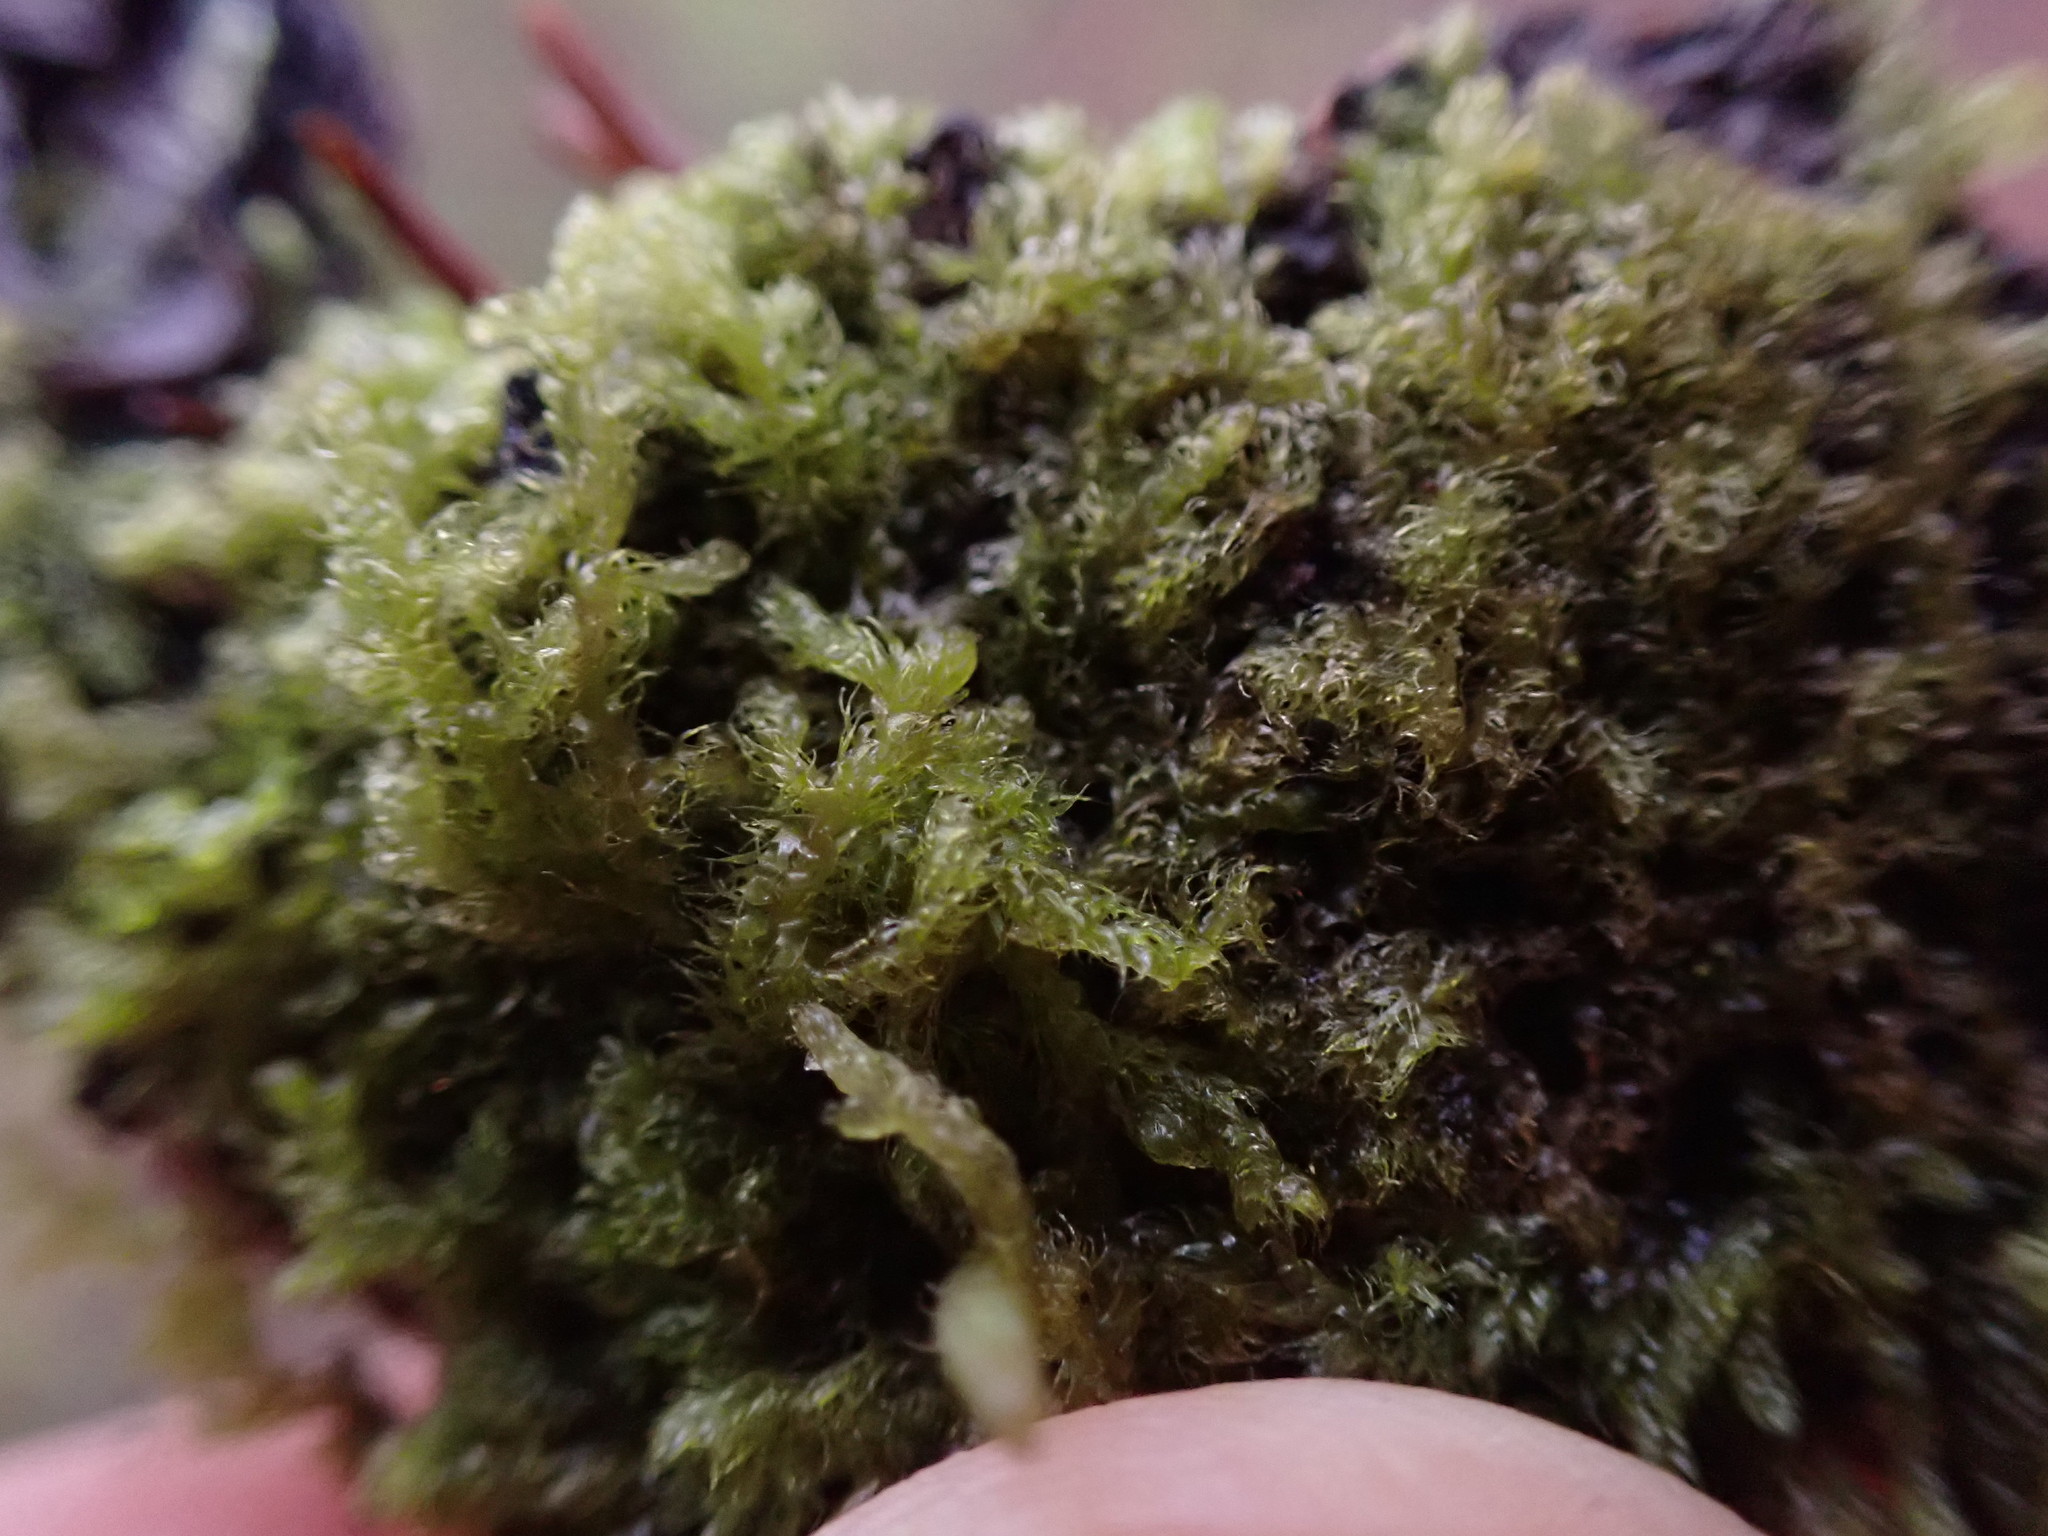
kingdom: Plantae
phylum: Marchantiophyta
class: Jungermanniopsida
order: Ptilidiales
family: Ptilidiaceae
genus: Ptilidium
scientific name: Ptilidium californicum
